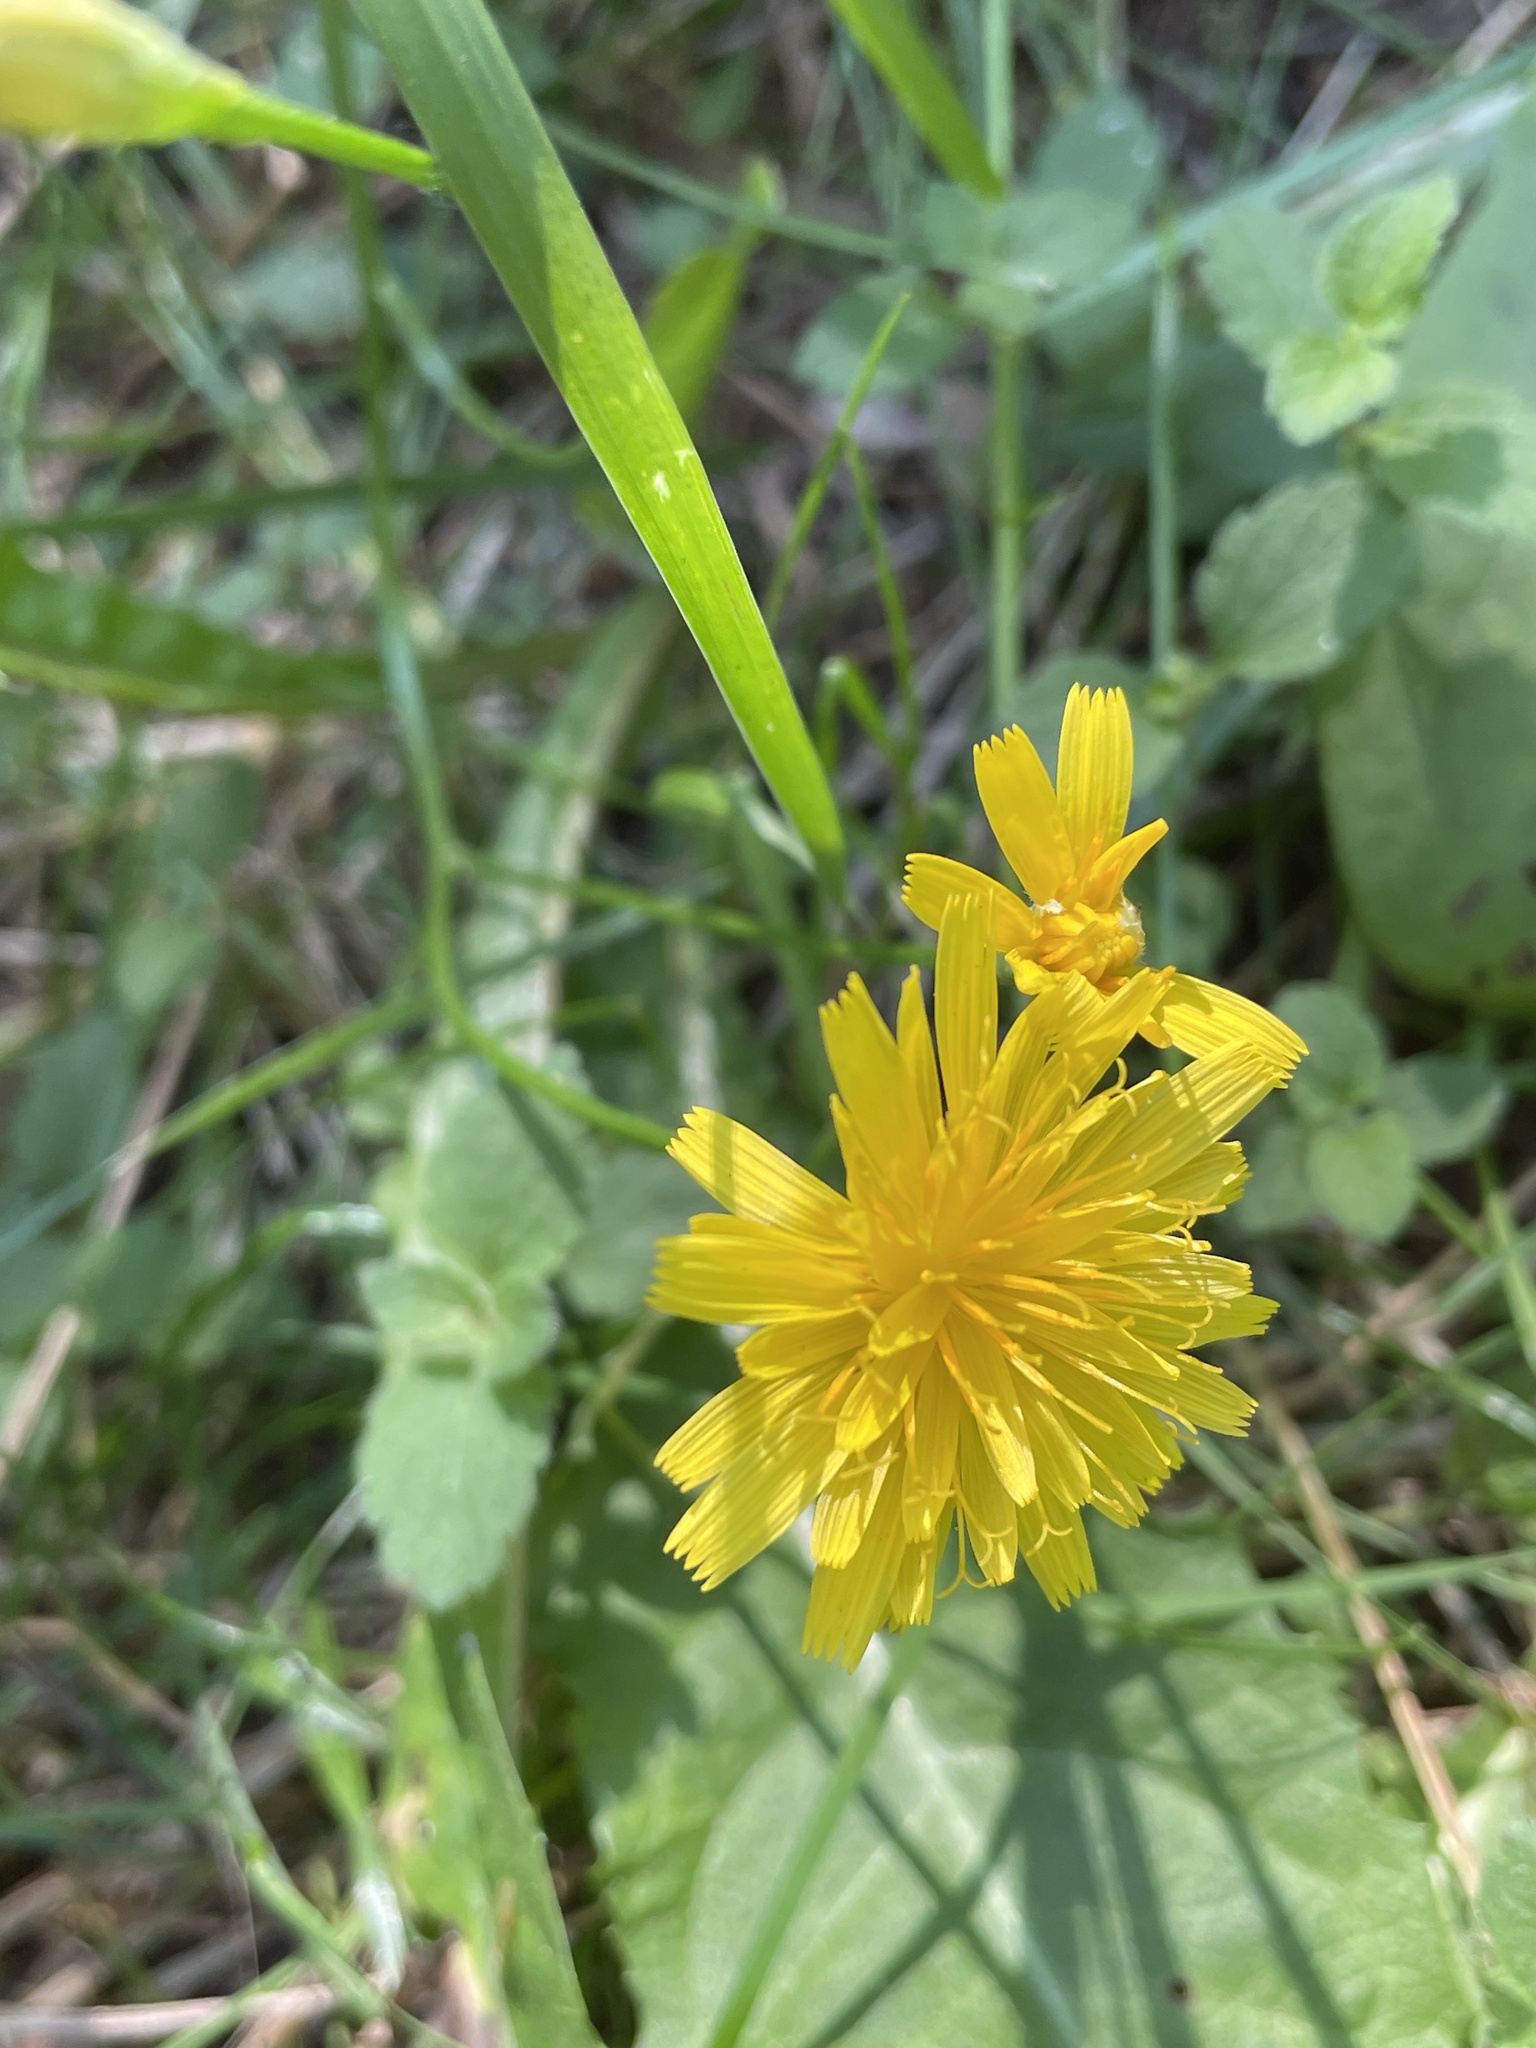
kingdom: Plantae
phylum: Tracheophyta
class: Magnoliopsida
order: Asterales
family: Asteraceae
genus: Scorzoneroides
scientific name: Scorzoneroides autumnalis
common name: Autumn hawkbit
